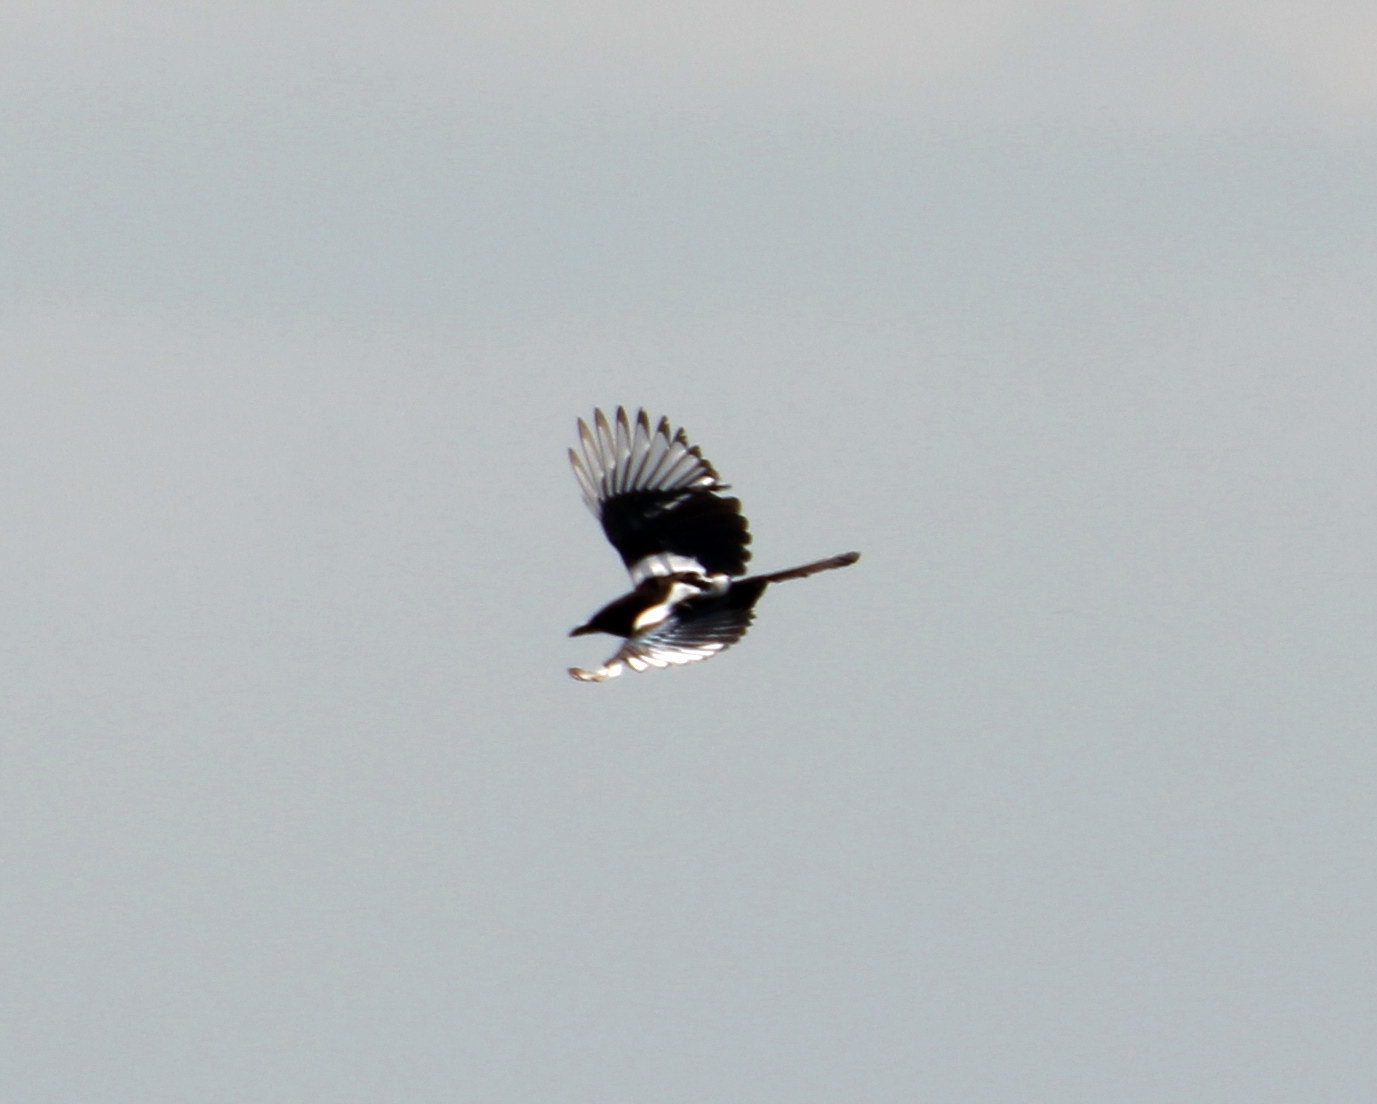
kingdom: Animalia
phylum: Chordata
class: Aves
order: Passeriformes
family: Corvidae
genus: Pica
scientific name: Pica pica
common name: Eurasian magpie
